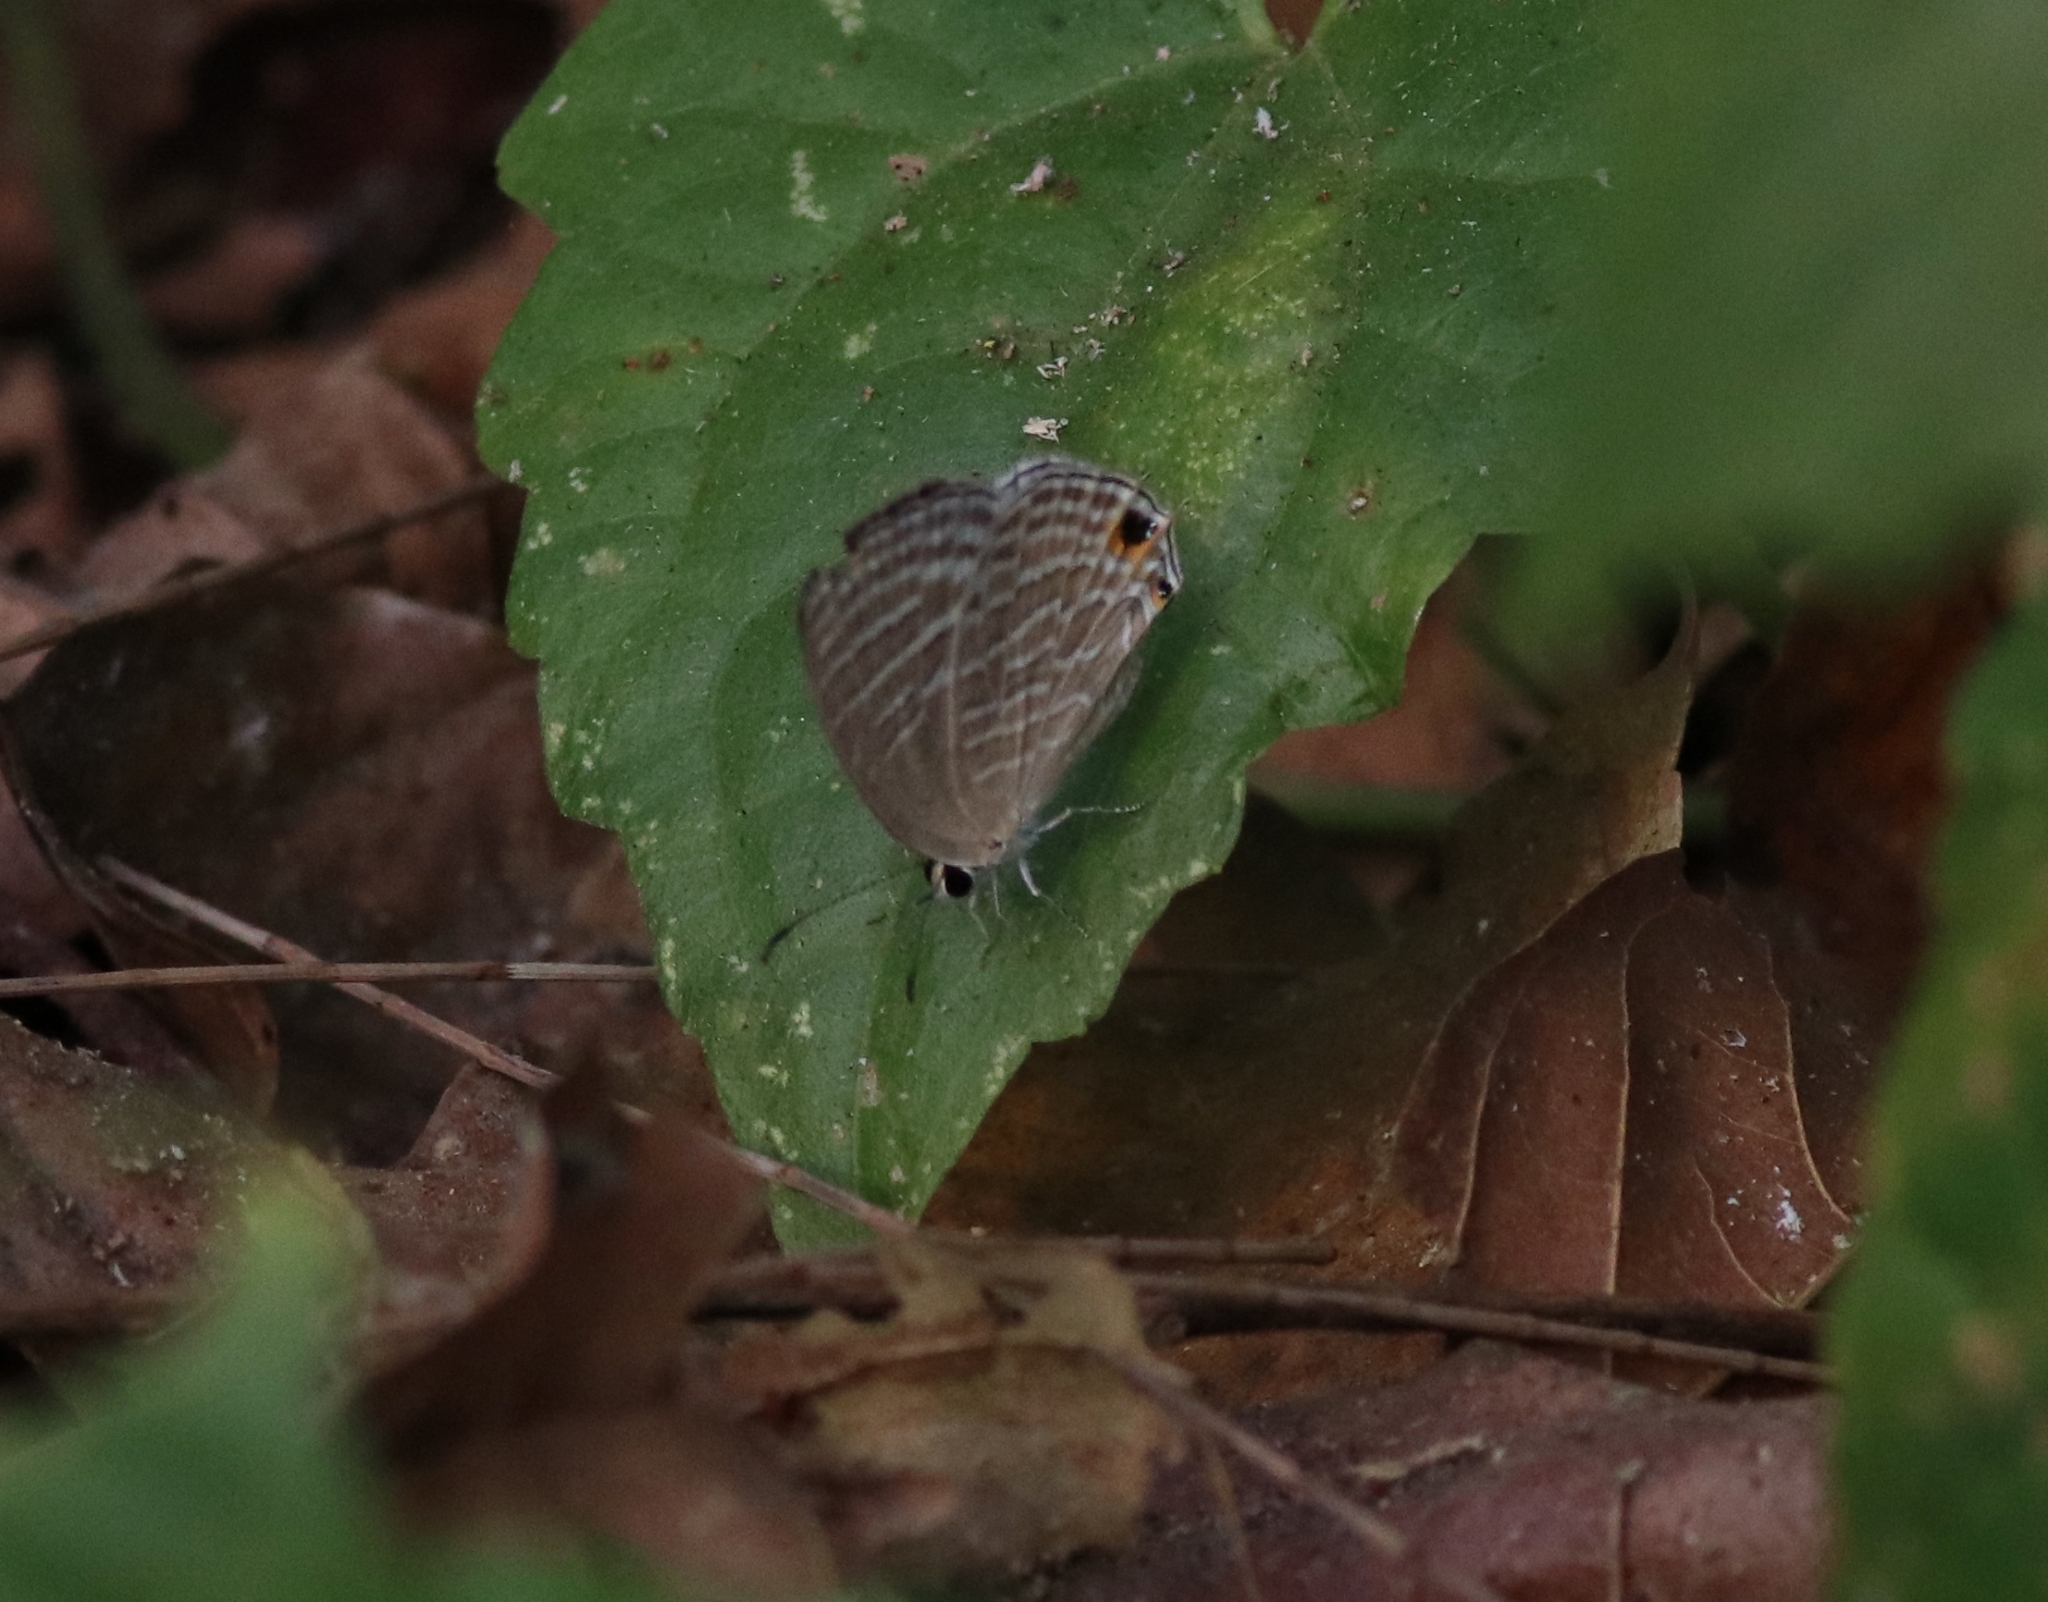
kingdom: Animalia
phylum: Arthropoda
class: Insecta
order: Lepidoptera
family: Lycaenidae
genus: Jamides
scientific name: Jamides celeno
